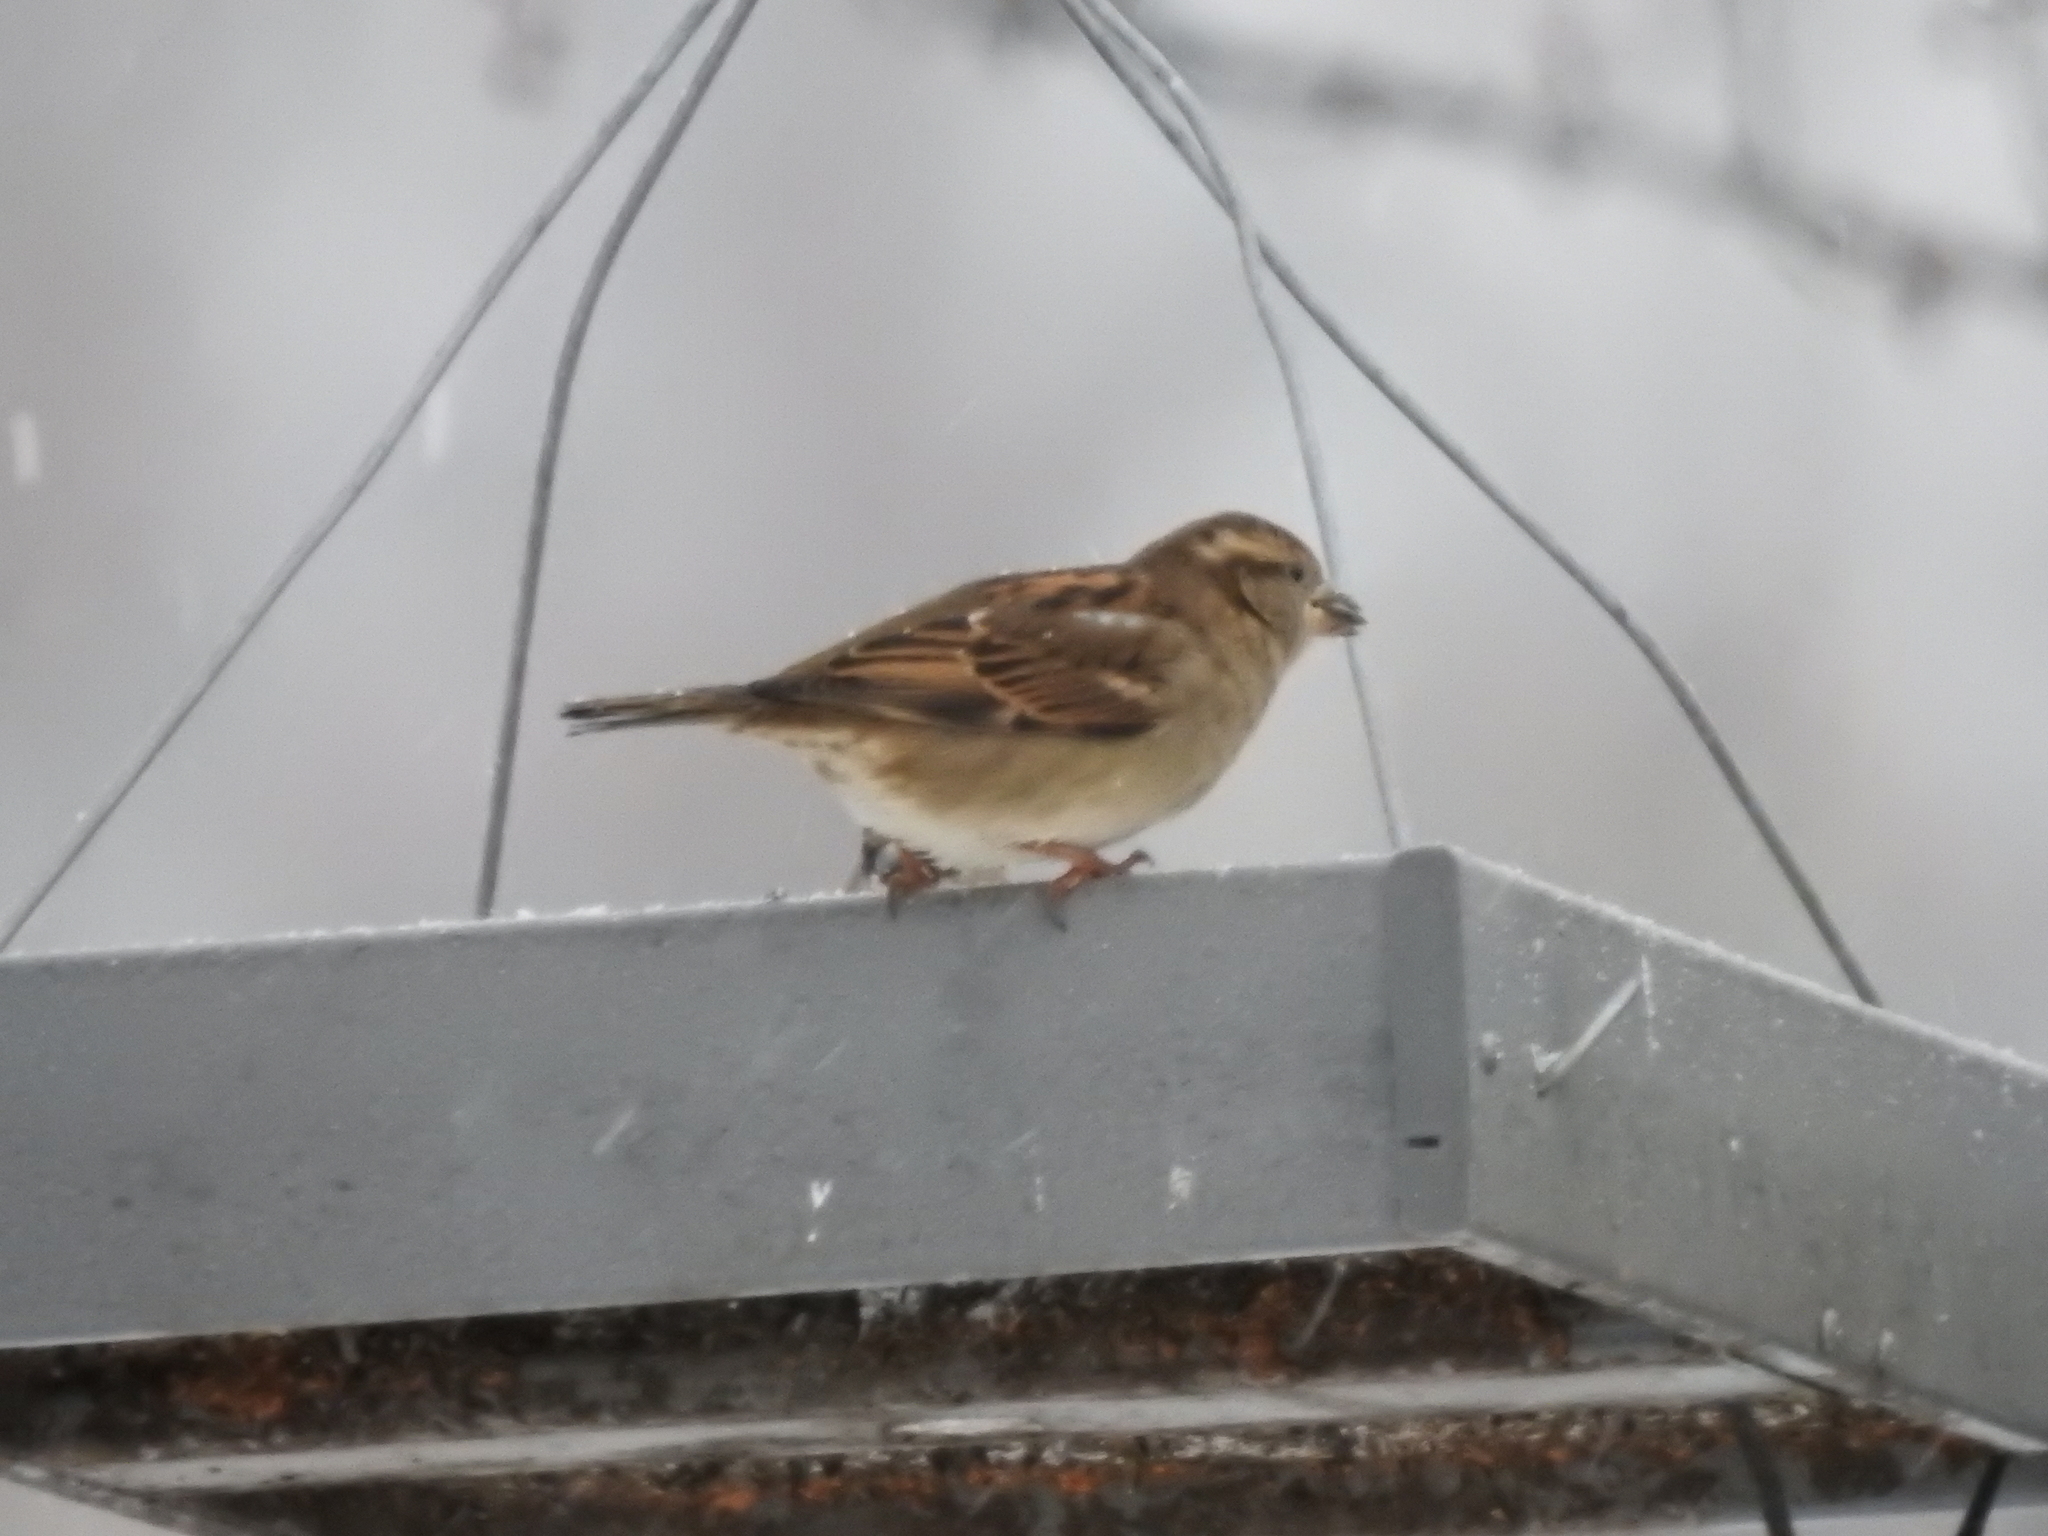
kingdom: Animalia
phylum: Chordata
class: Aves
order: Passeriformes
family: Passeridae
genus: Passer
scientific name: Passer domesticus
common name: House sparrow
